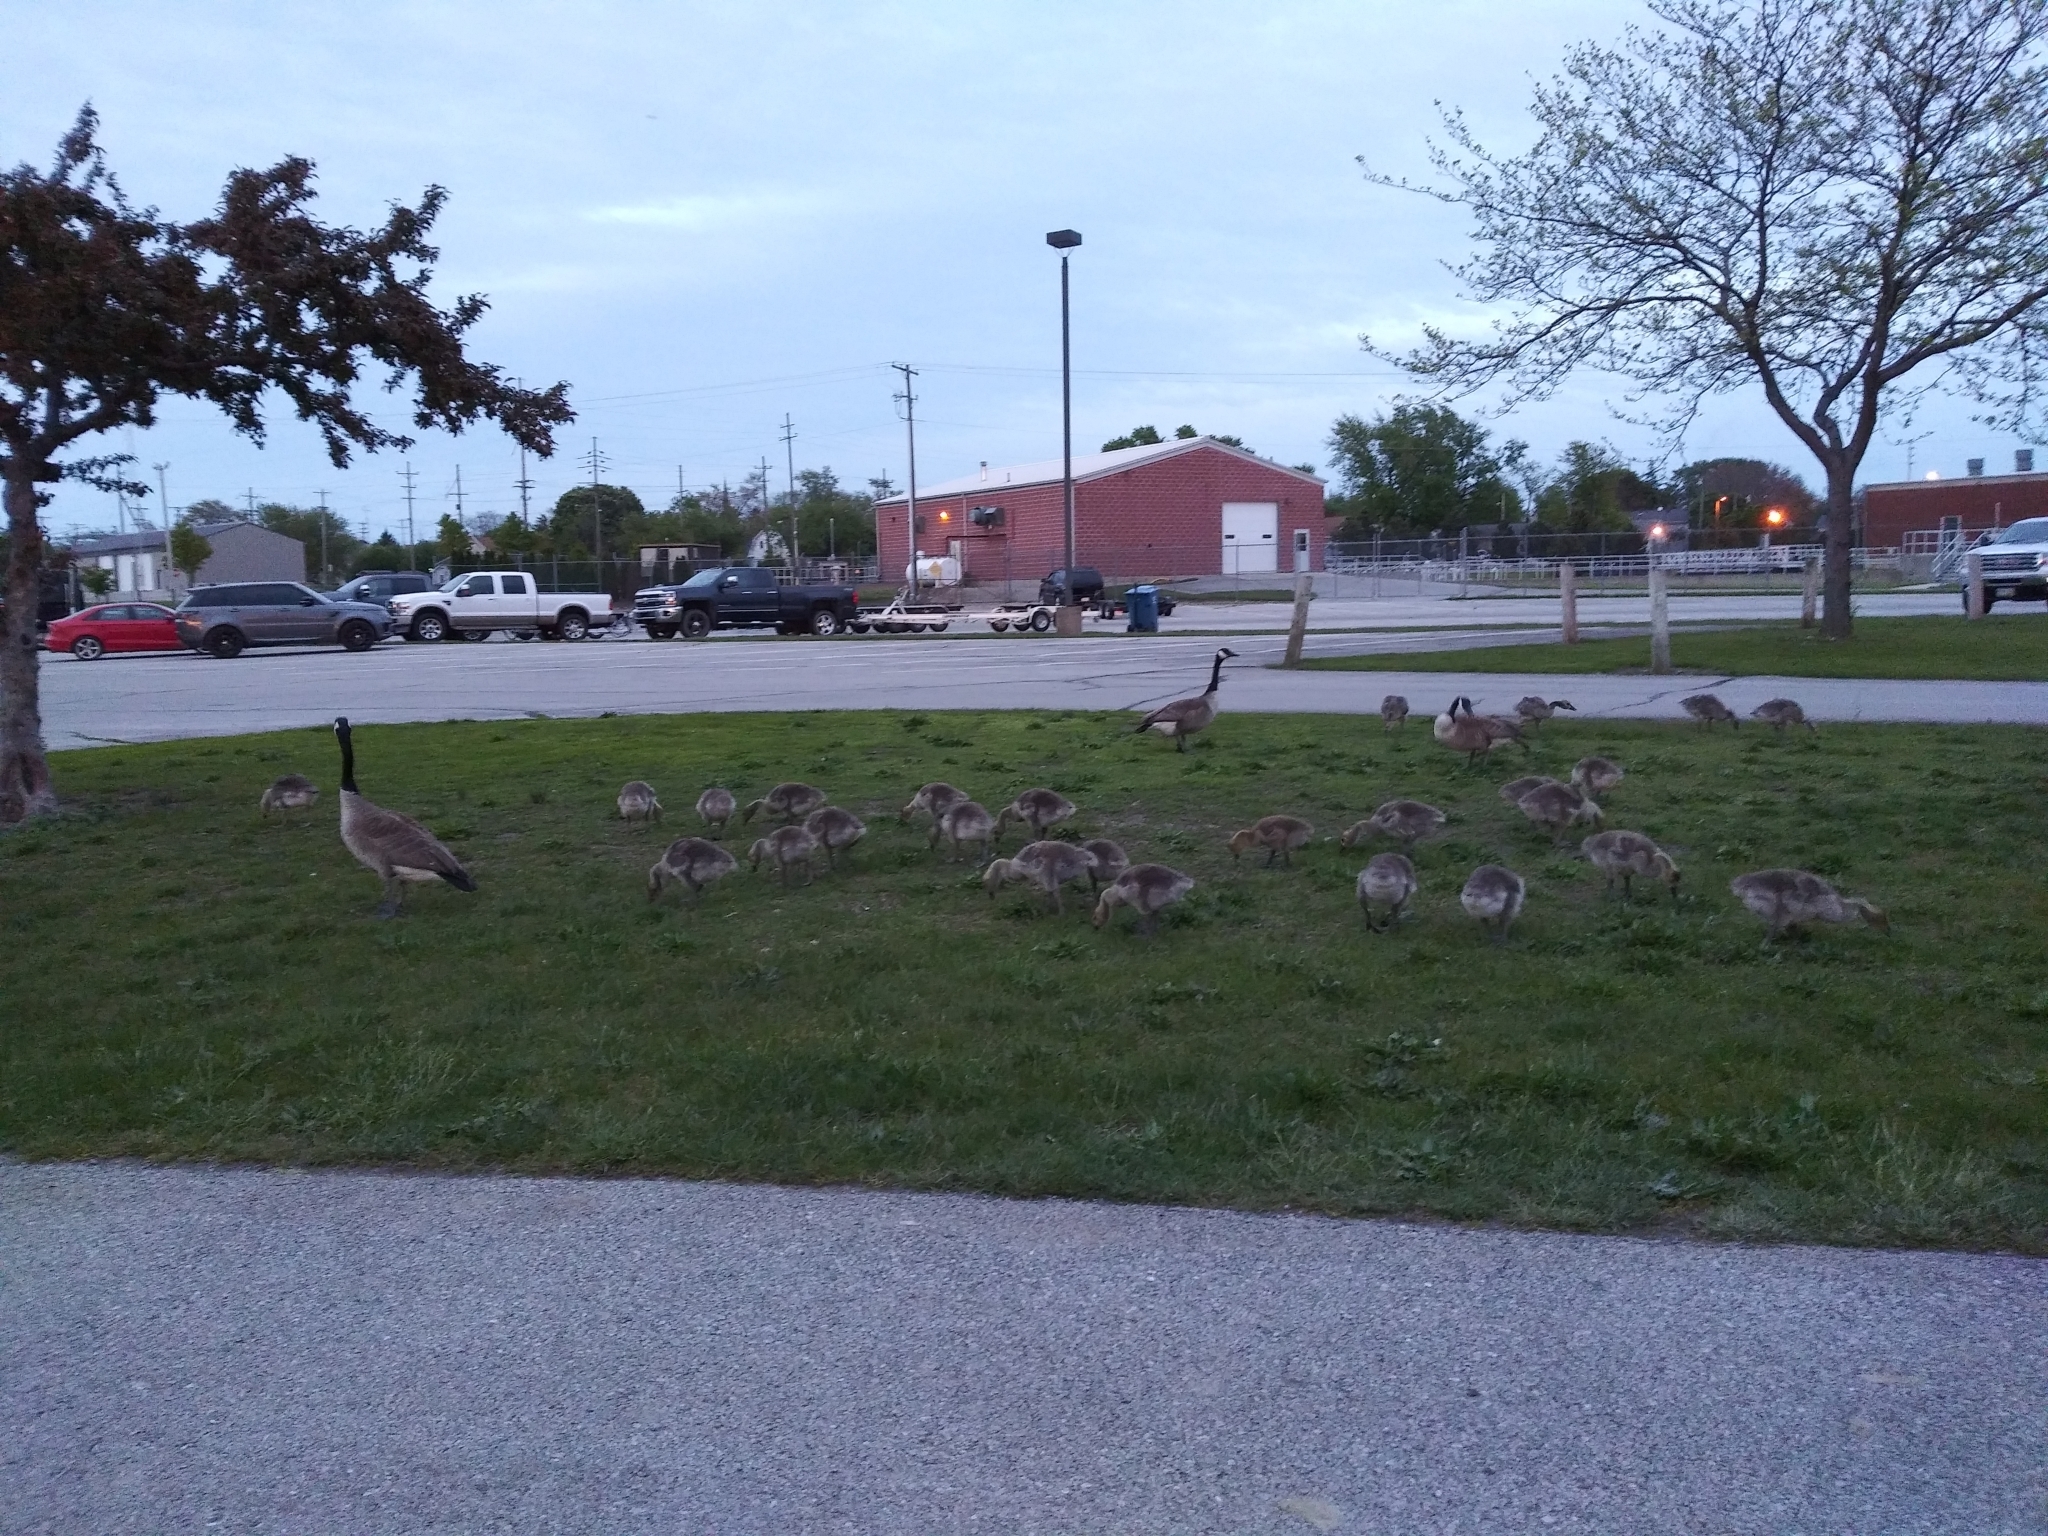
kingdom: Animalia
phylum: Chordata
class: Aves
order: Anseriformes
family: Anatidae
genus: Branta
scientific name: Branta canadensis
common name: Canada goose
